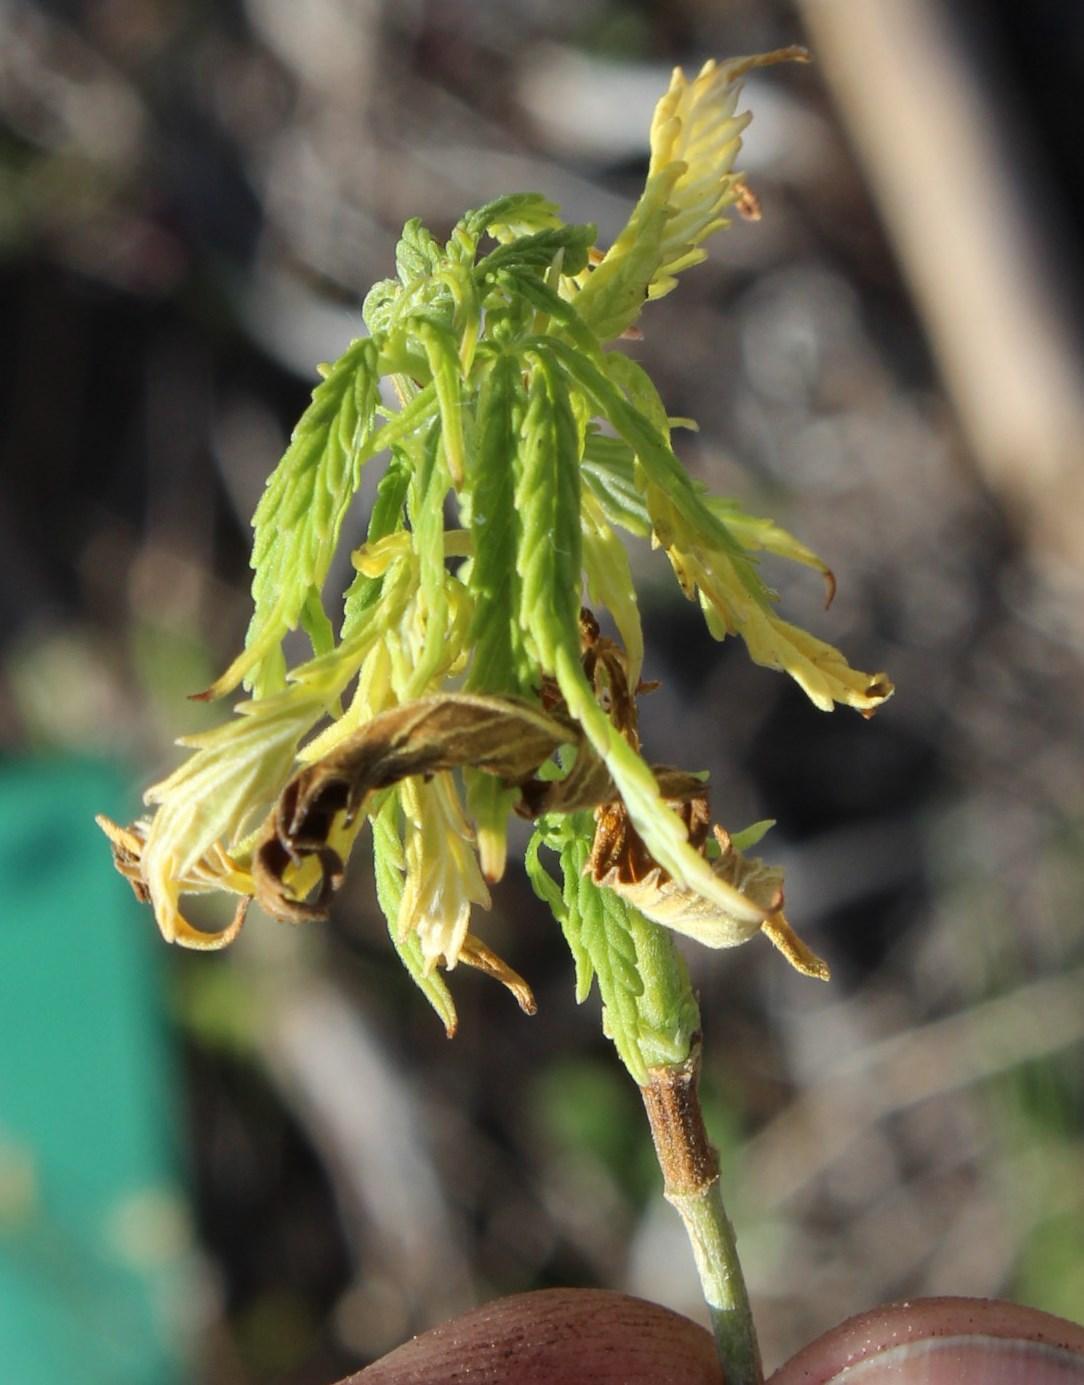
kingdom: Plantae
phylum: Tracheophyta
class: Magnoliopsida
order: Rosales
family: Cannabaceae
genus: Cannabis
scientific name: Cannabis sativa
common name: Hemp
